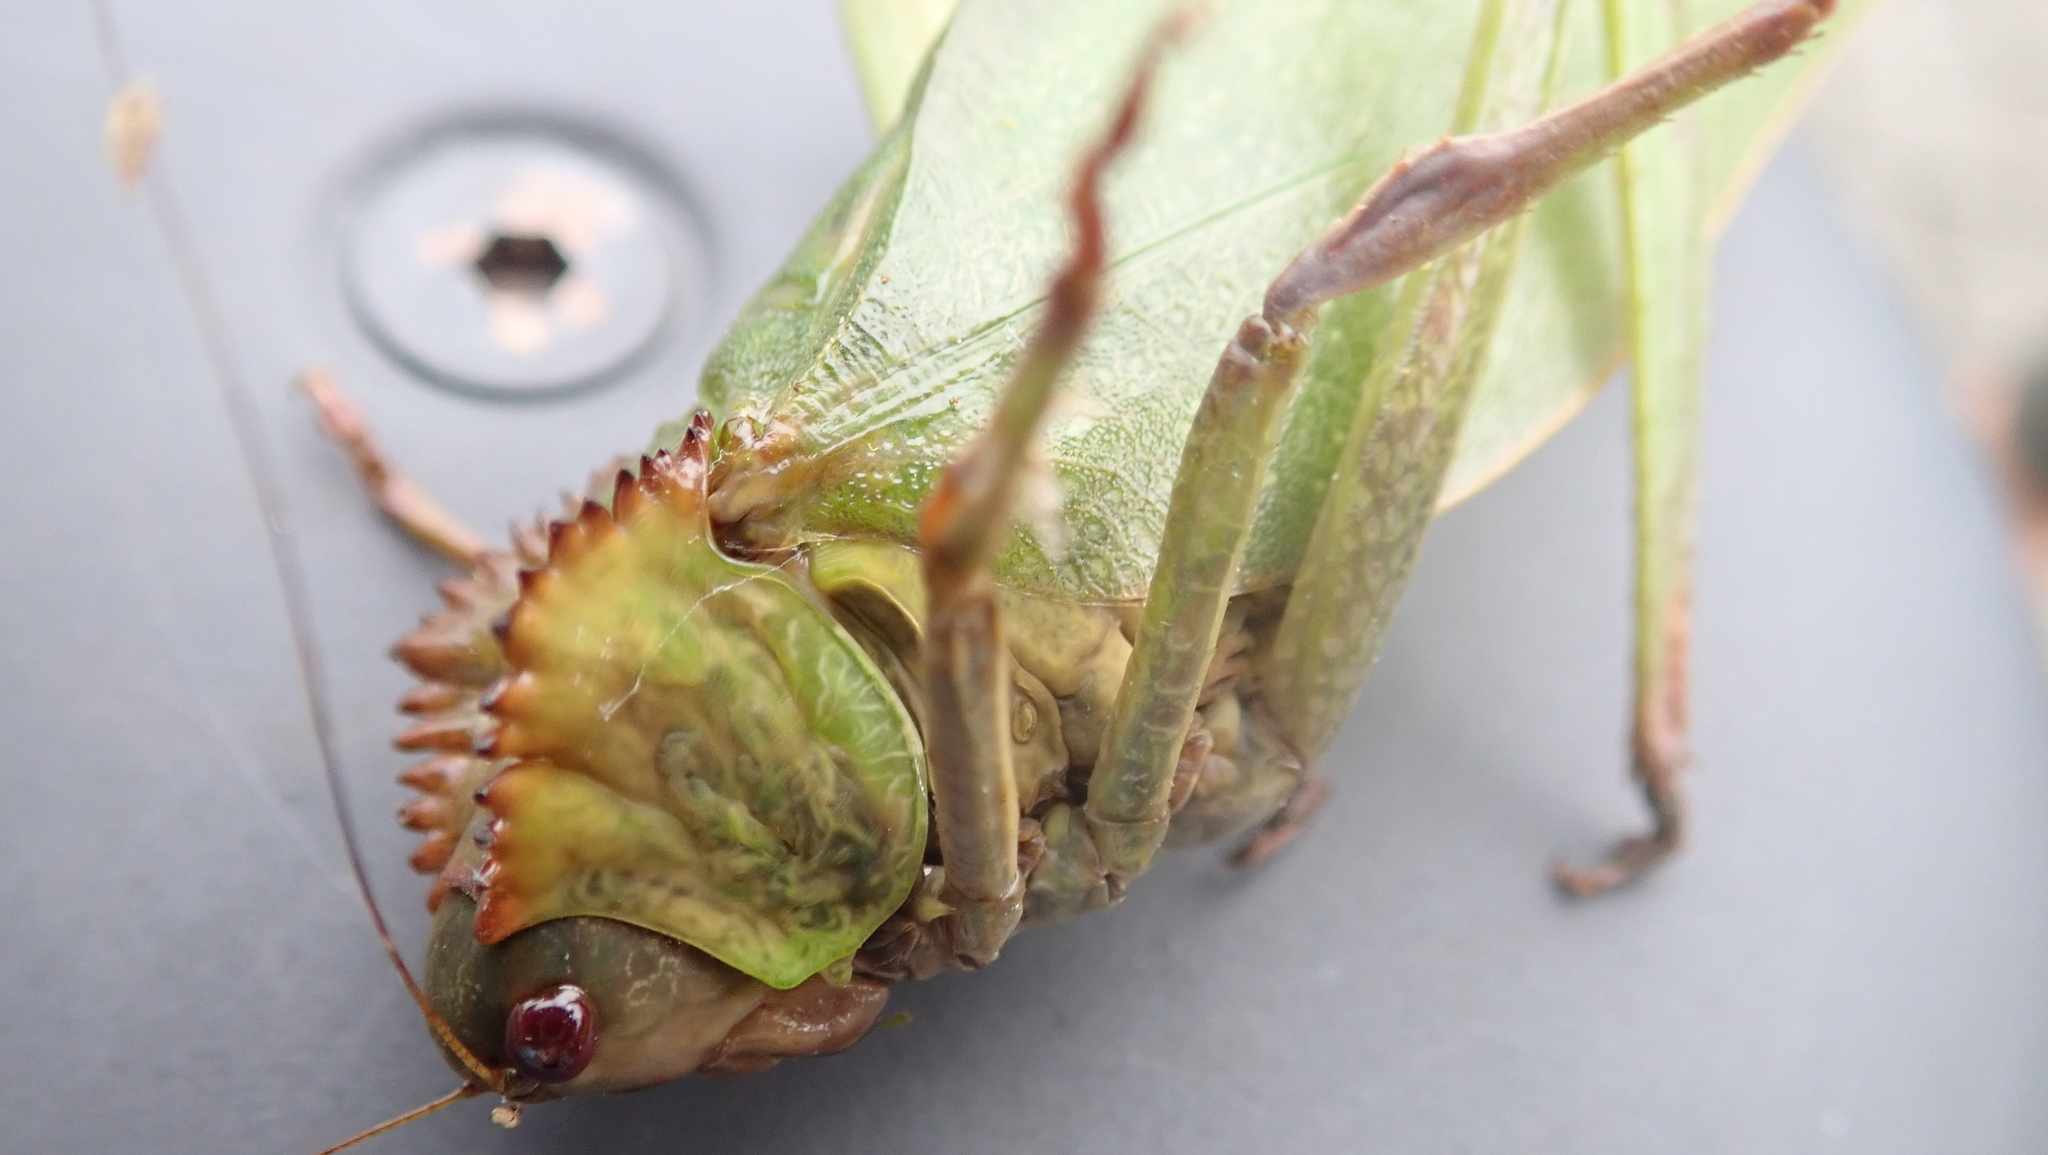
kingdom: Animalia
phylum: Arthropoda
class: Insecta
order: Orthoptera
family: Tettigoniidae
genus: Steirodon
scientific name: Steirodon careovirgulatum
